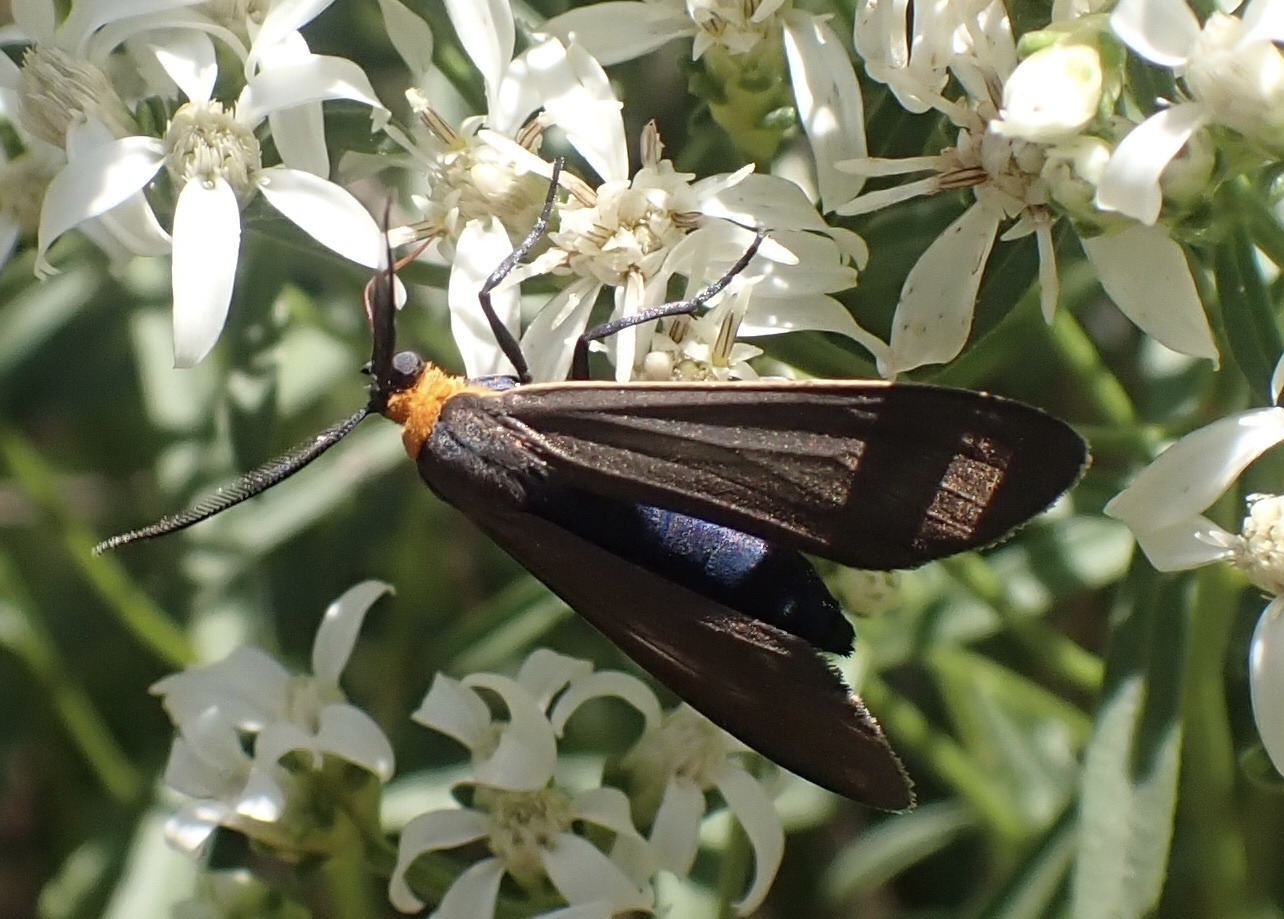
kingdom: Animalia
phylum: Arthropoda
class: Insecta
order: Lepidoptera
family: Erebidae
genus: Cisseps
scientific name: Cisseps fulvicollis
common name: Yellow-collared scape moth
